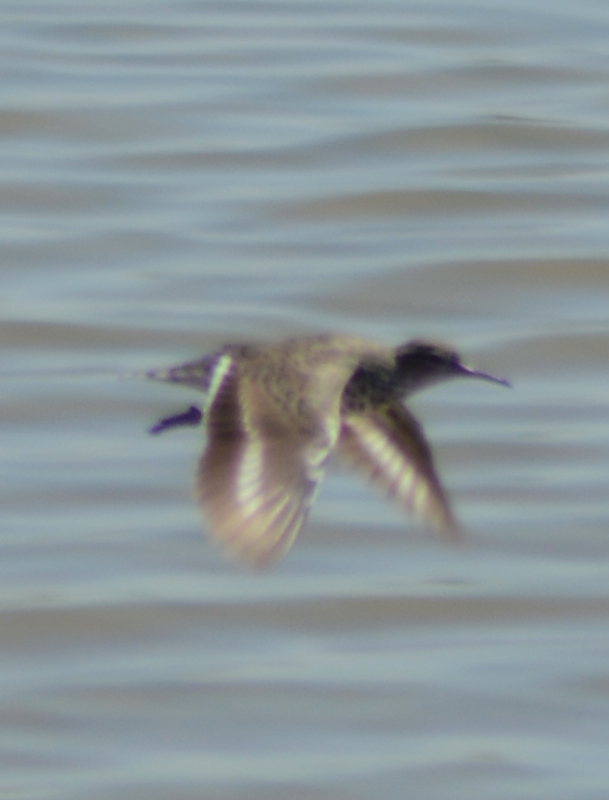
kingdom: Animalia
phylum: Chordata
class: Aves
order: Charadriiformes
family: Scolopacidae
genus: Actitis
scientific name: Actitis macularius
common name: Spotted sandpiper
